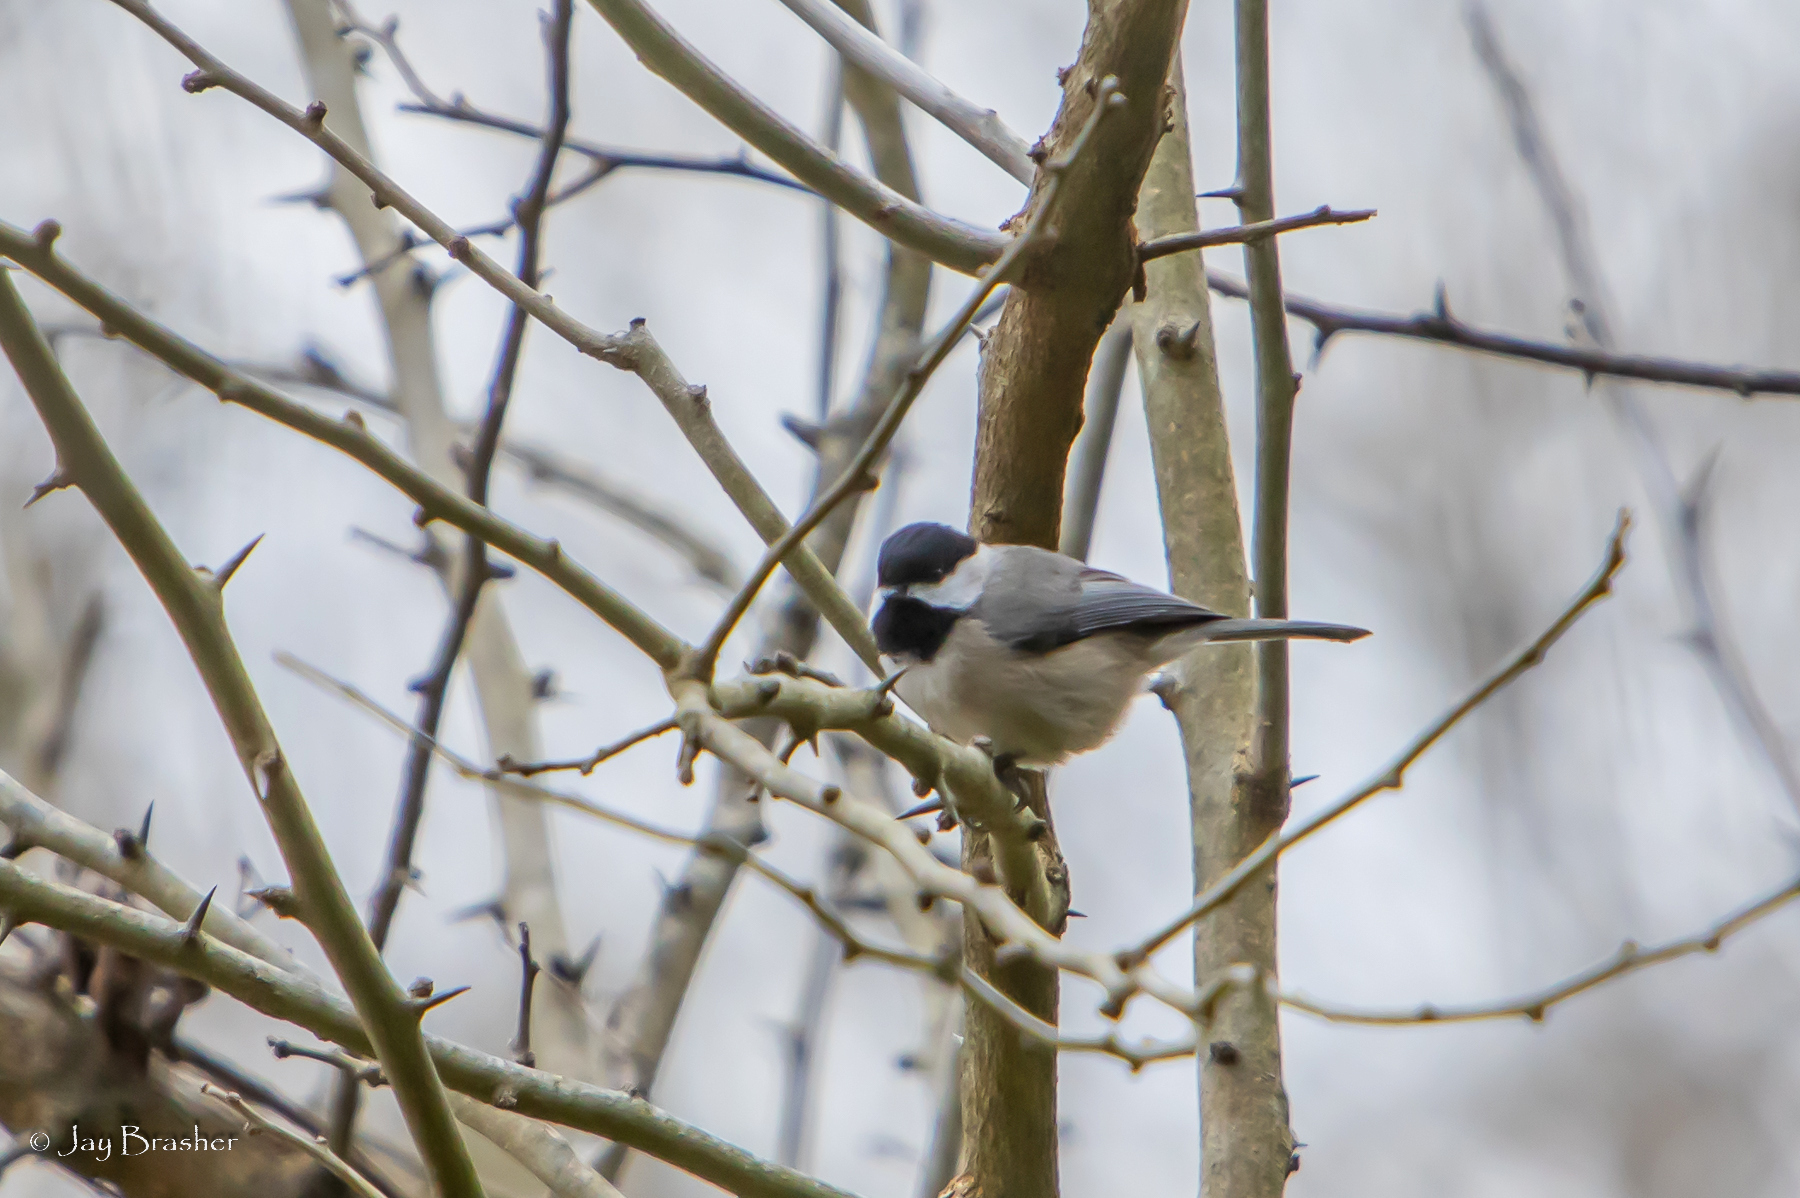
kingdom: Animalia
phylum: Chordata
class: Aves
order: Passeriformes
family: Paridae
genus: Poecile
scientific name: Poecile carolinensis
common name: Carolina chickadee
